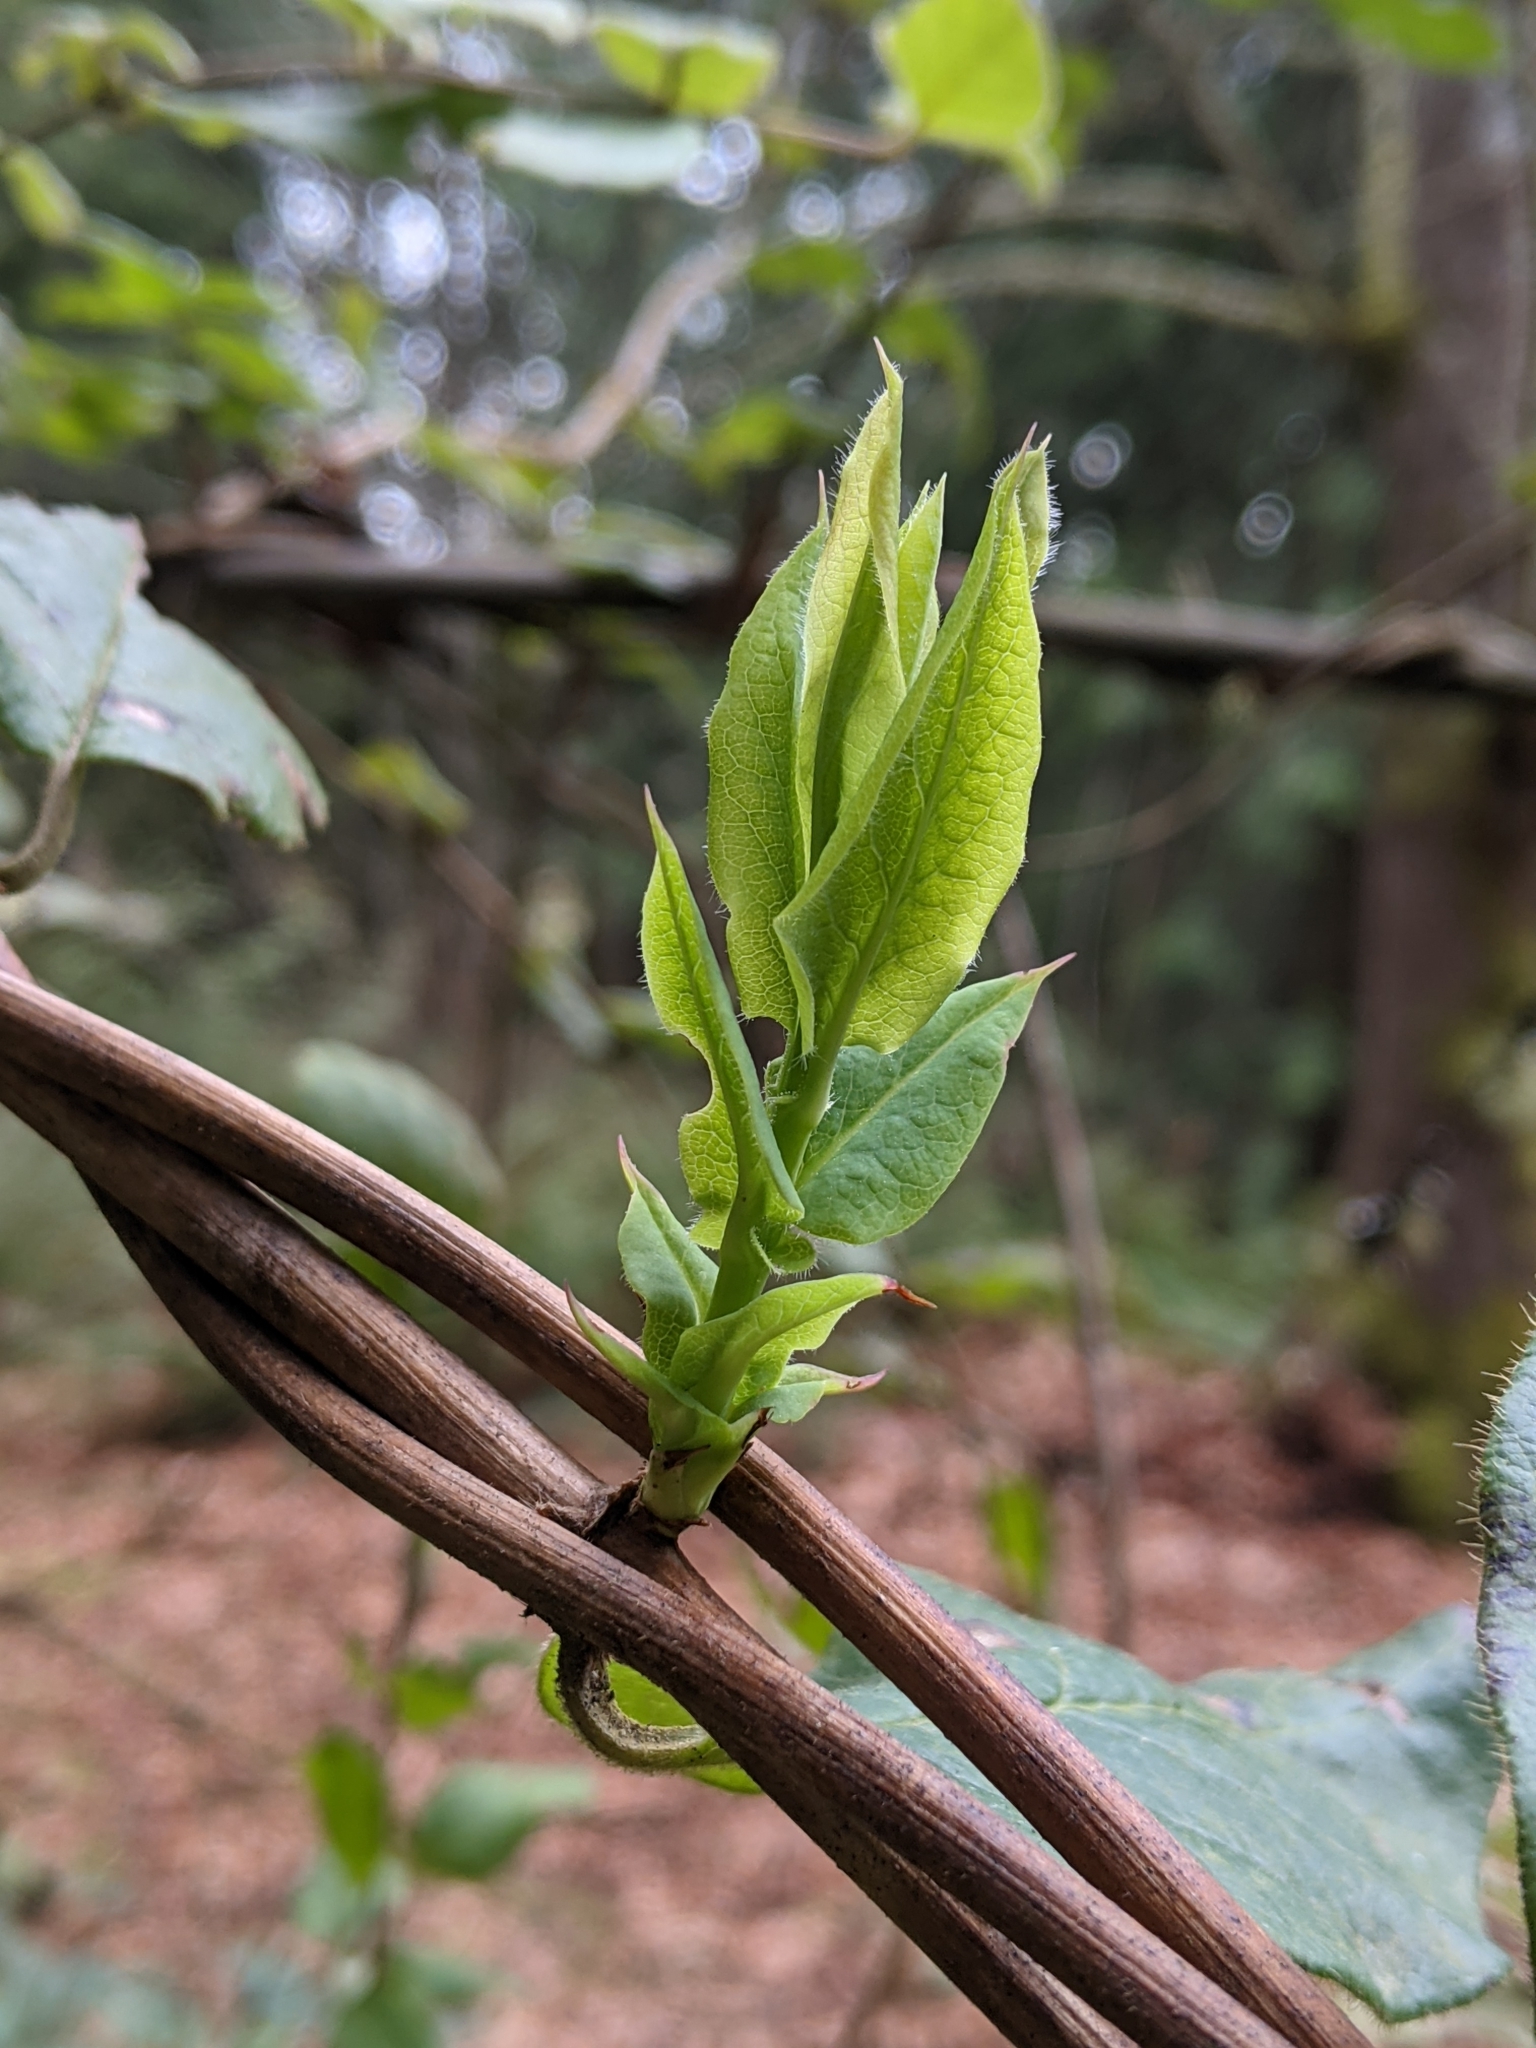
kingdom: Plantae
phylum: Tracheophyta
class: Magnoliopsida
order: Dipsacales
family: Caprifoliaceae
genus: Lonicera
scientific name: Lonicera hispidula
